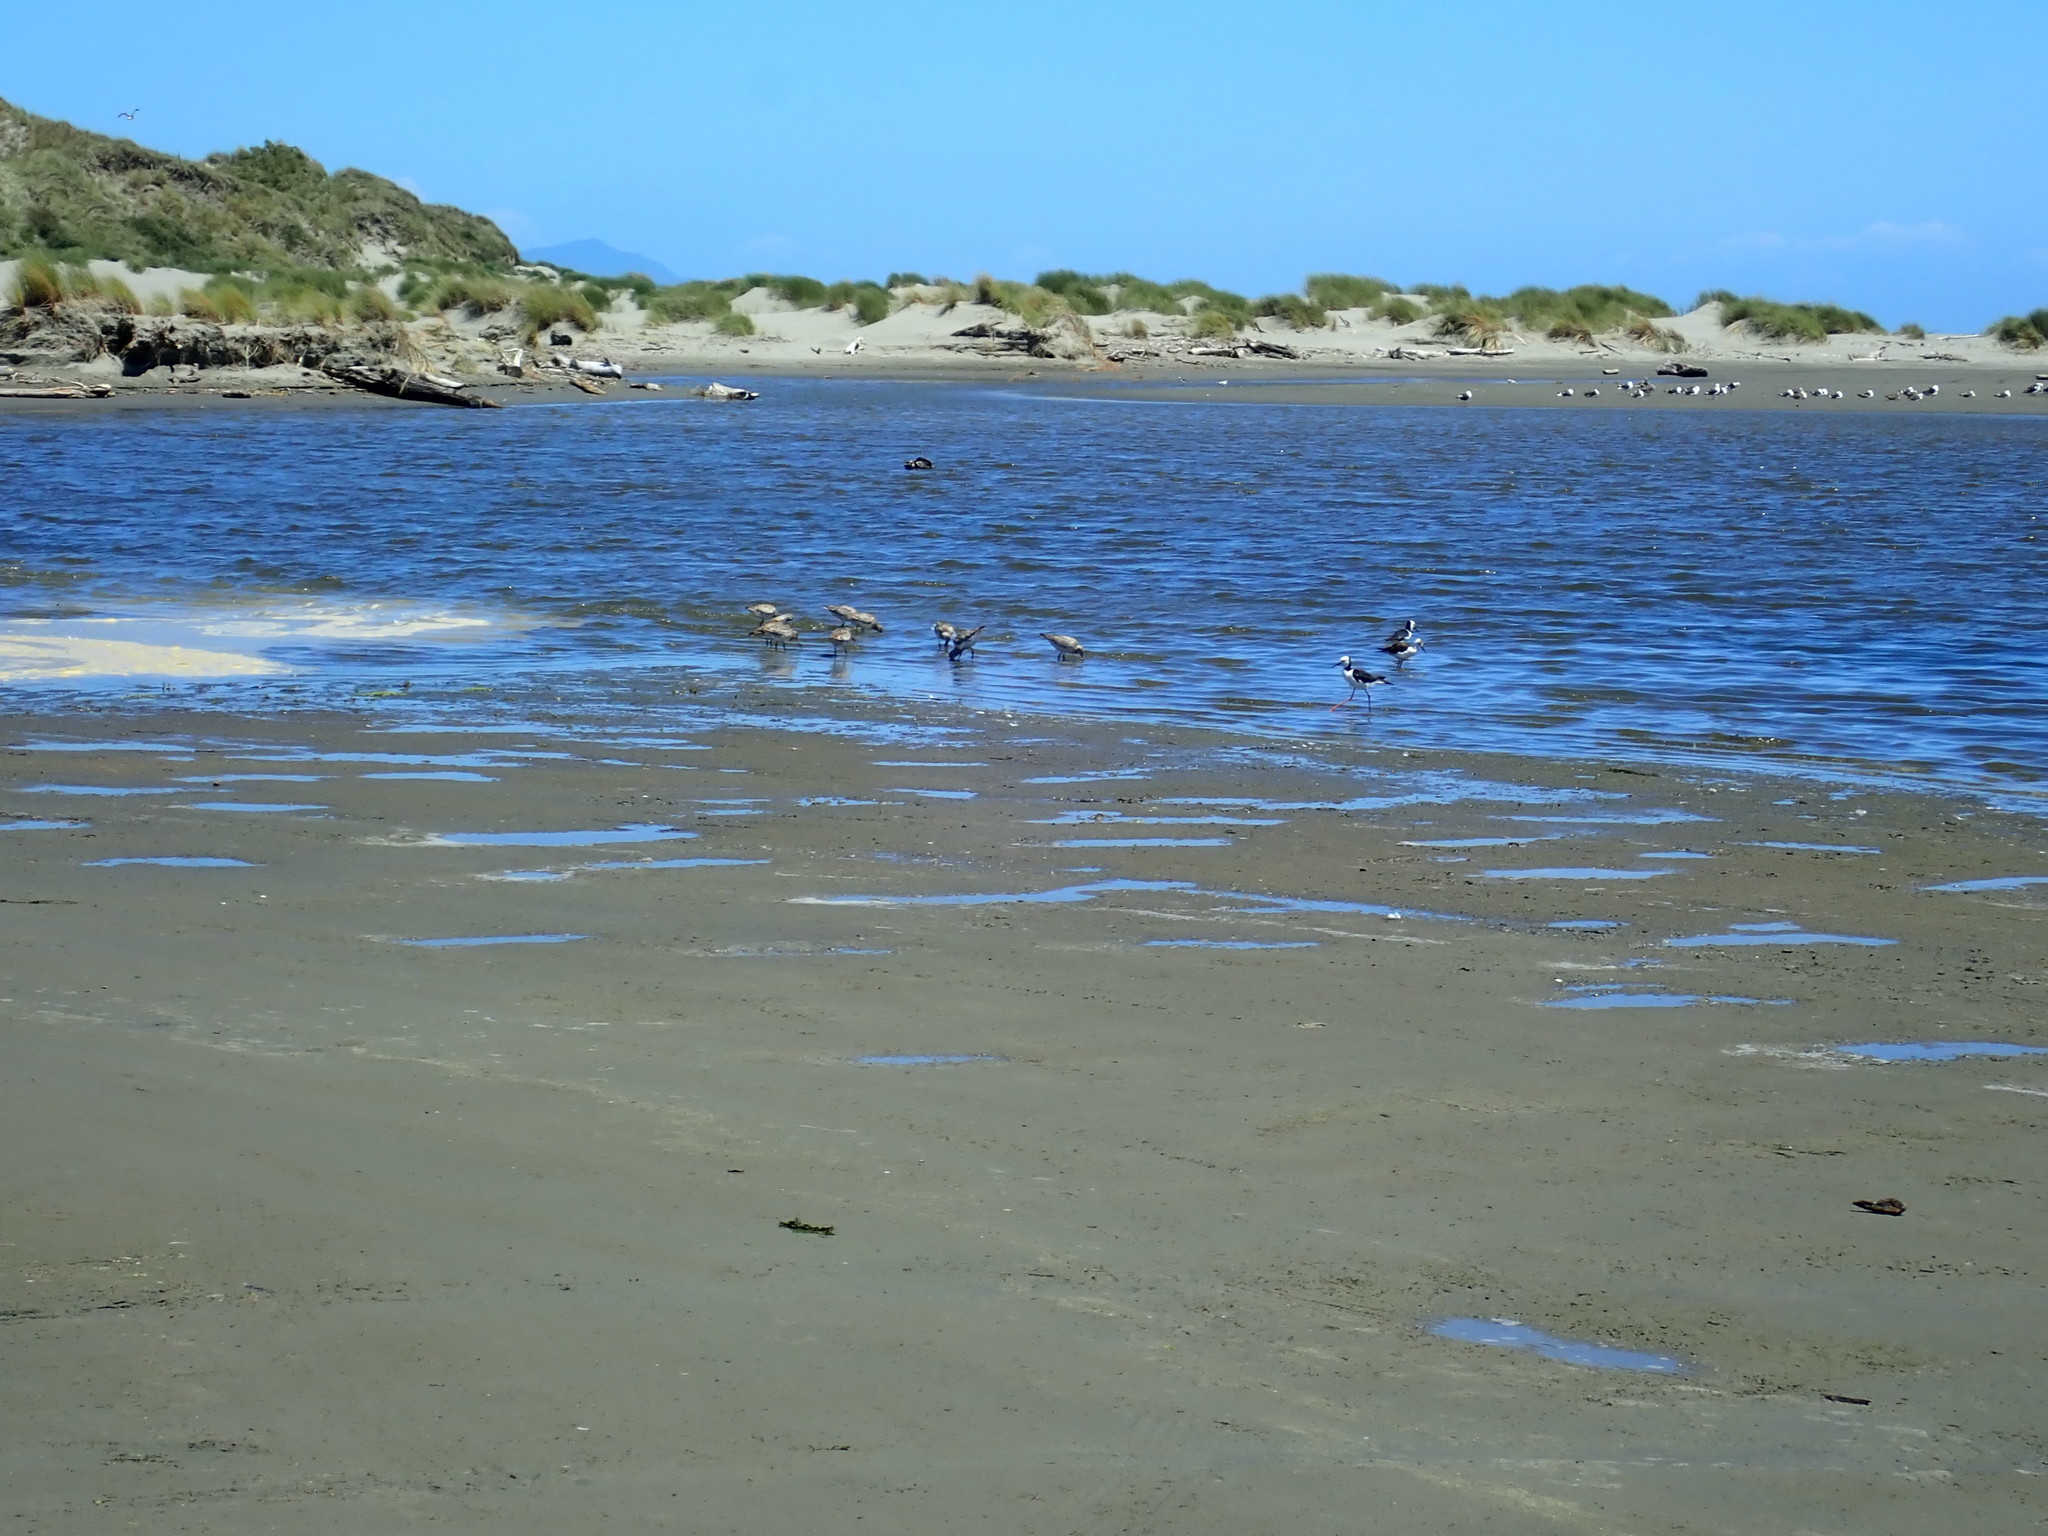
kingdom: Animalia
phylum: Chordata
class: Aves
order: Charadriiformes
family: Recurvirostridae
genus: Himantopus
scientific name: Himantopus leucocephalus
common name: White-headed stilt
